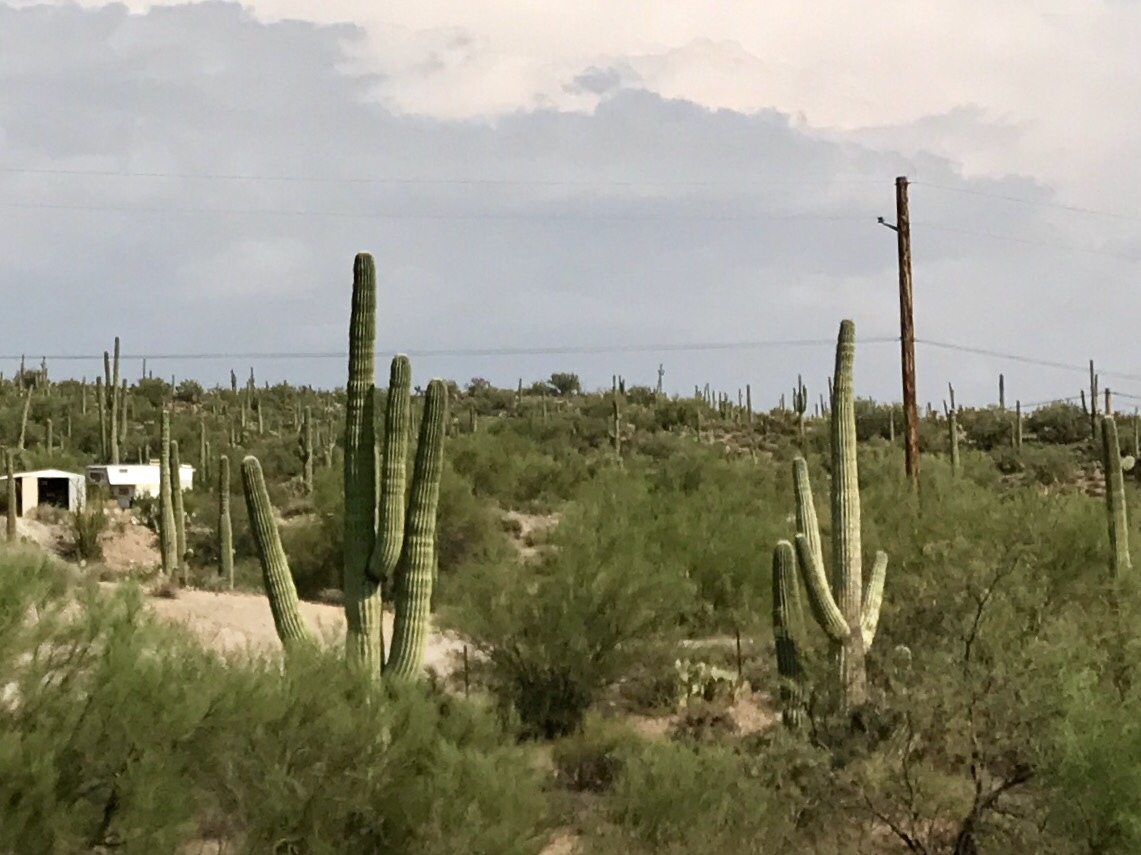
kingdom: Plantae
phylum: Tracheophyta
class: Magnoliopsida
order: Caryophyllales
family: Cactaceae
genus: Carnegiea
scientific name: Carnegiea gigantea
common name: Saguaro
